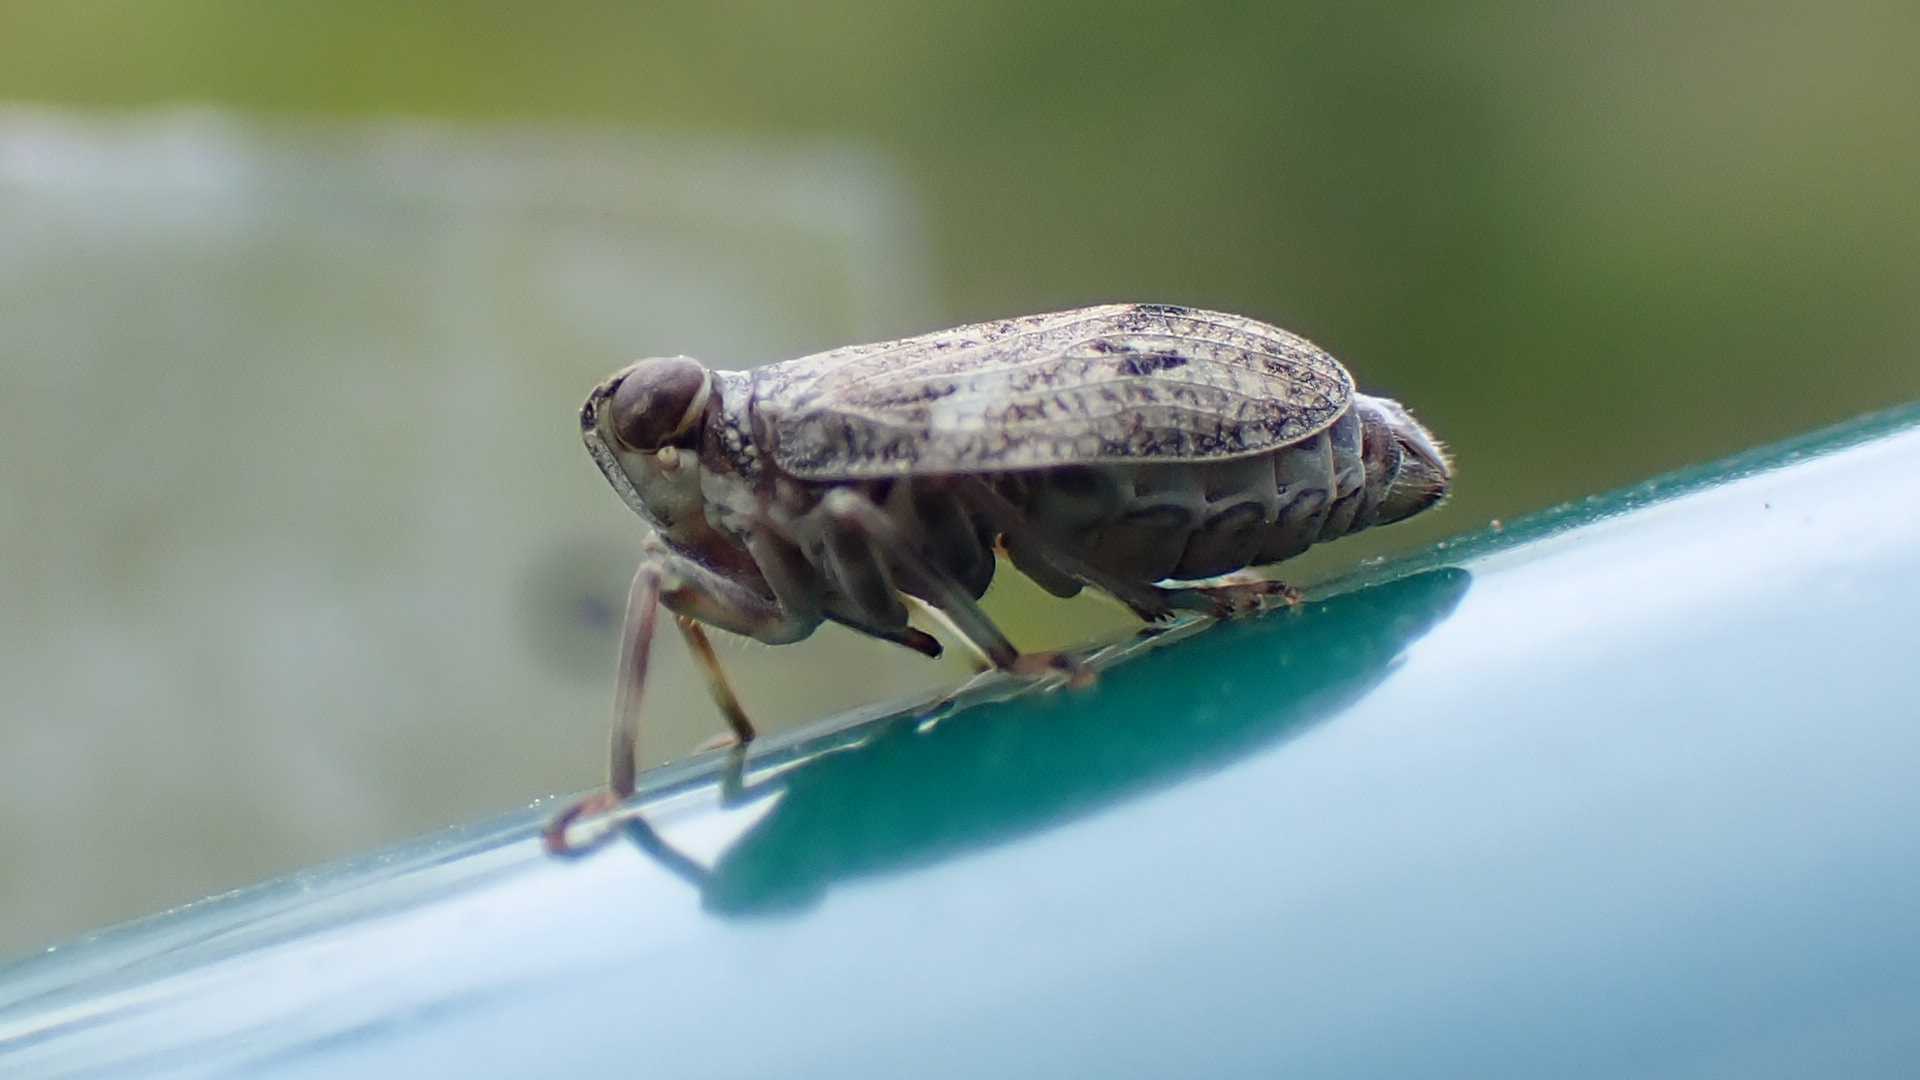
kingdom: Animalia
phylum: Arthropoda
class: Insecta
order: Hemiptera
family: Issidae
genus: Issus
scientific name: Issus coleoptratus
